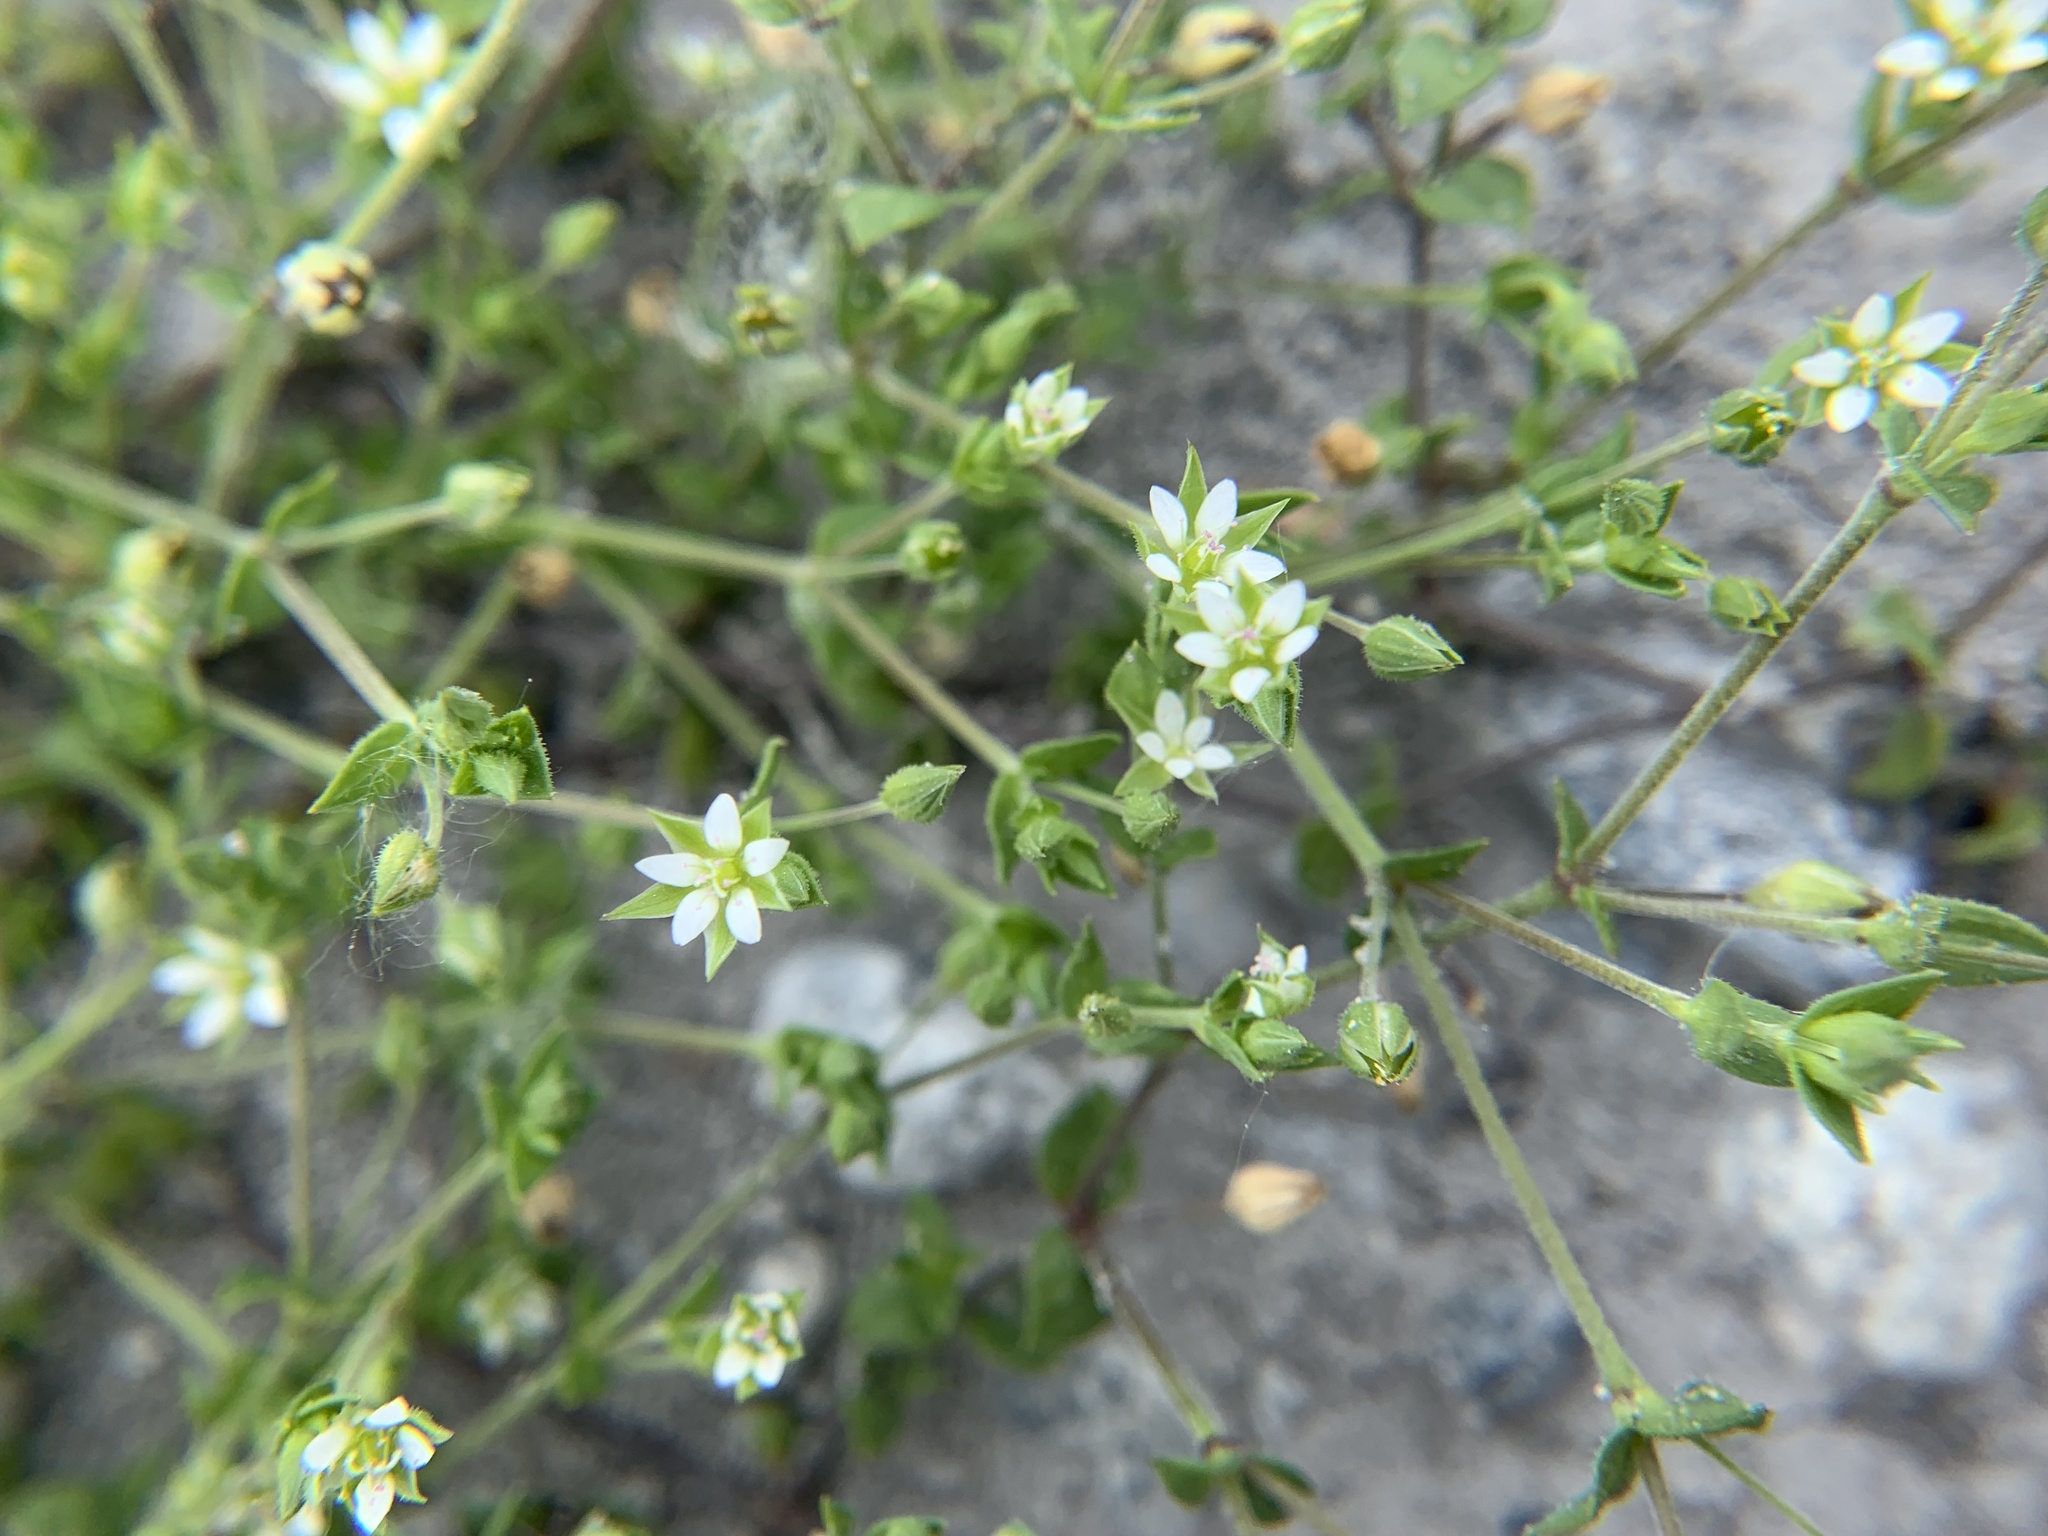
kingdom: Plantae
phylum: Tracheophyta
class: Magnoliopsida
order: Caryophyllales
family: Caryophyllaceae
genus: Arenaria
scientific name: Arenaria serpyllifolia
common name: Thyme-leaved sandwort
